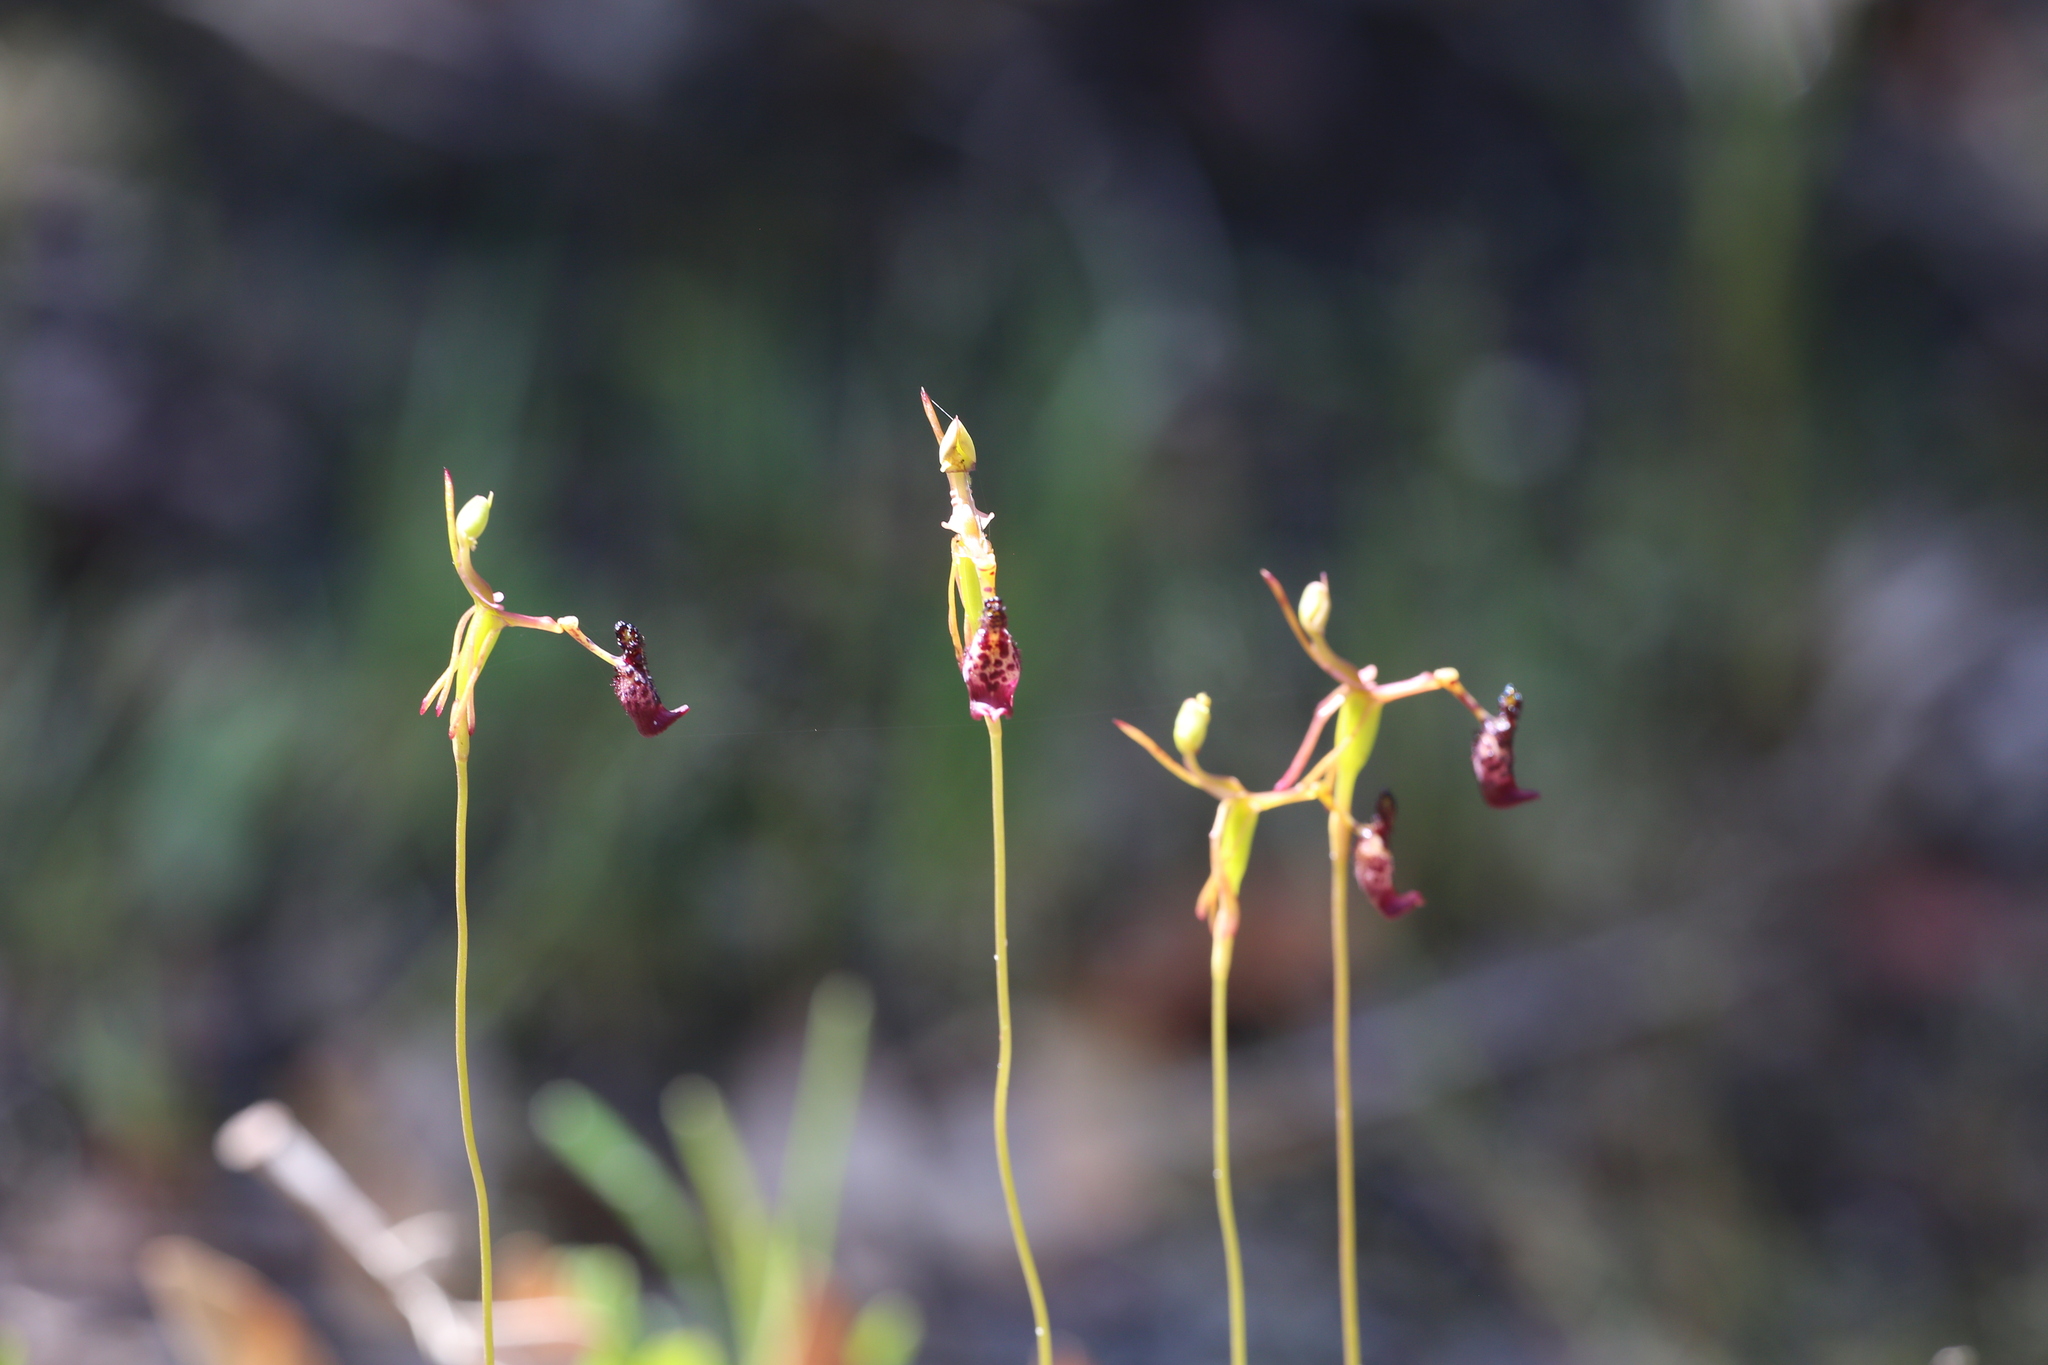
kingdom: Plantae
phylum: Tracheophyta
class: Liliopsida
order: Asparagales
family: Orchidaceae
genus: Drakaea
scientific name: Drakaea livida
